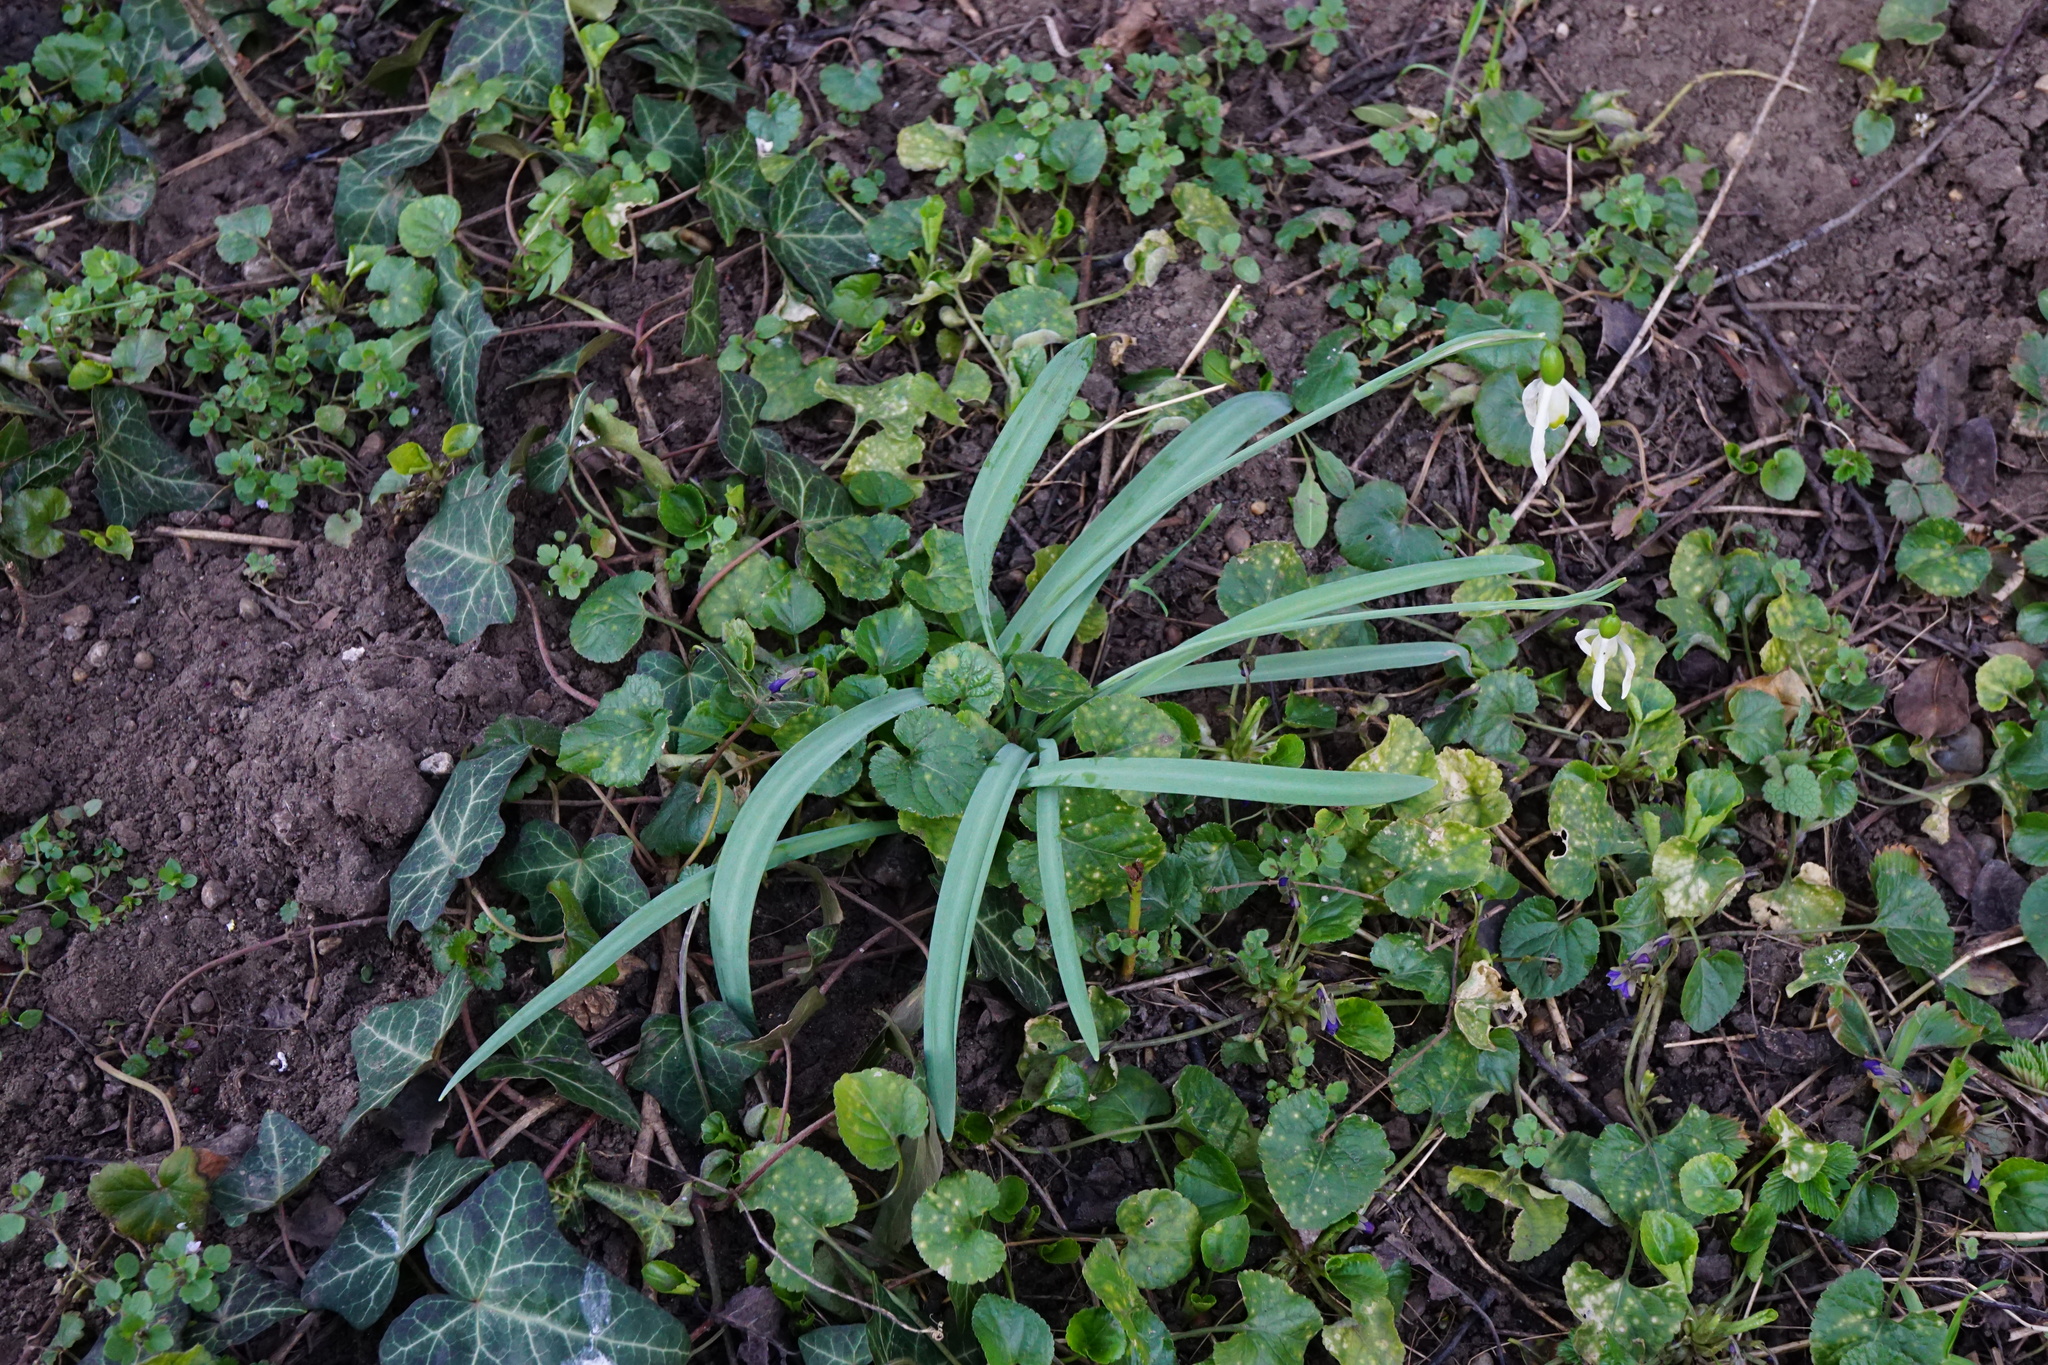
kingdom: Plantae
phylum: Tracheophyta
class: Liliopsida
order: Asparagales
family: Amaryllidaceae
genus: Galanthus
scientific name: Galanthus
